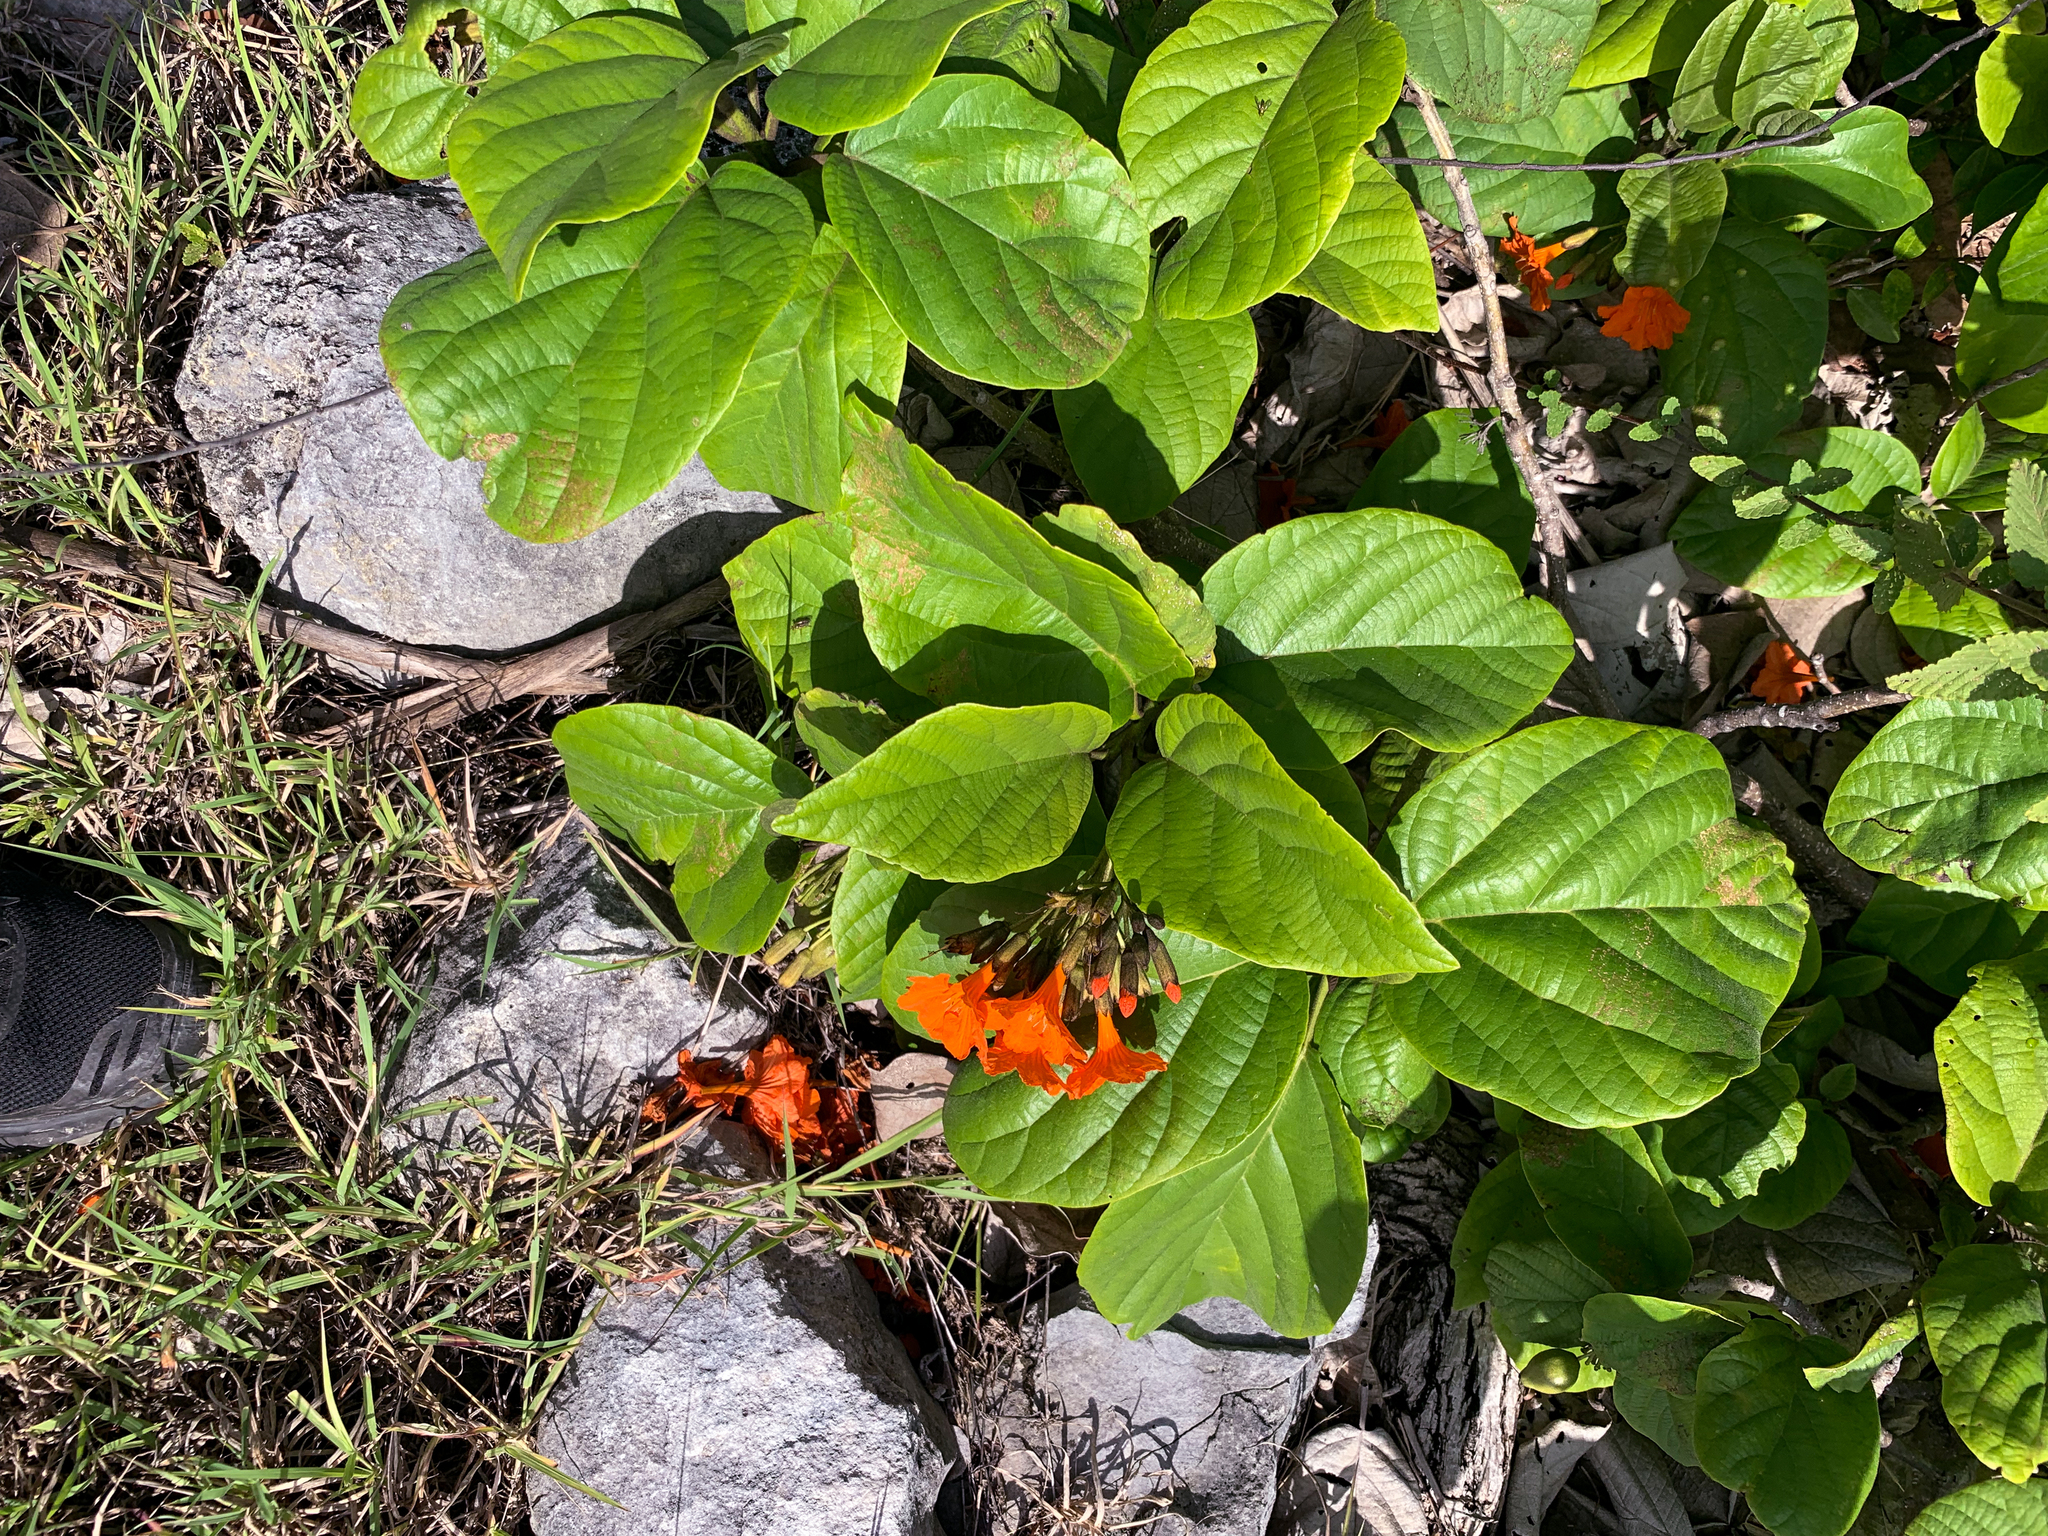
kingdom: Plantae
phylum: Tracheophyta
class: Magnoliopsida
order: Boraginales
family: Cordiaceae
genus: Cordia
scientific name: Cordia sebestena
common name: Largeleaf geigertree
